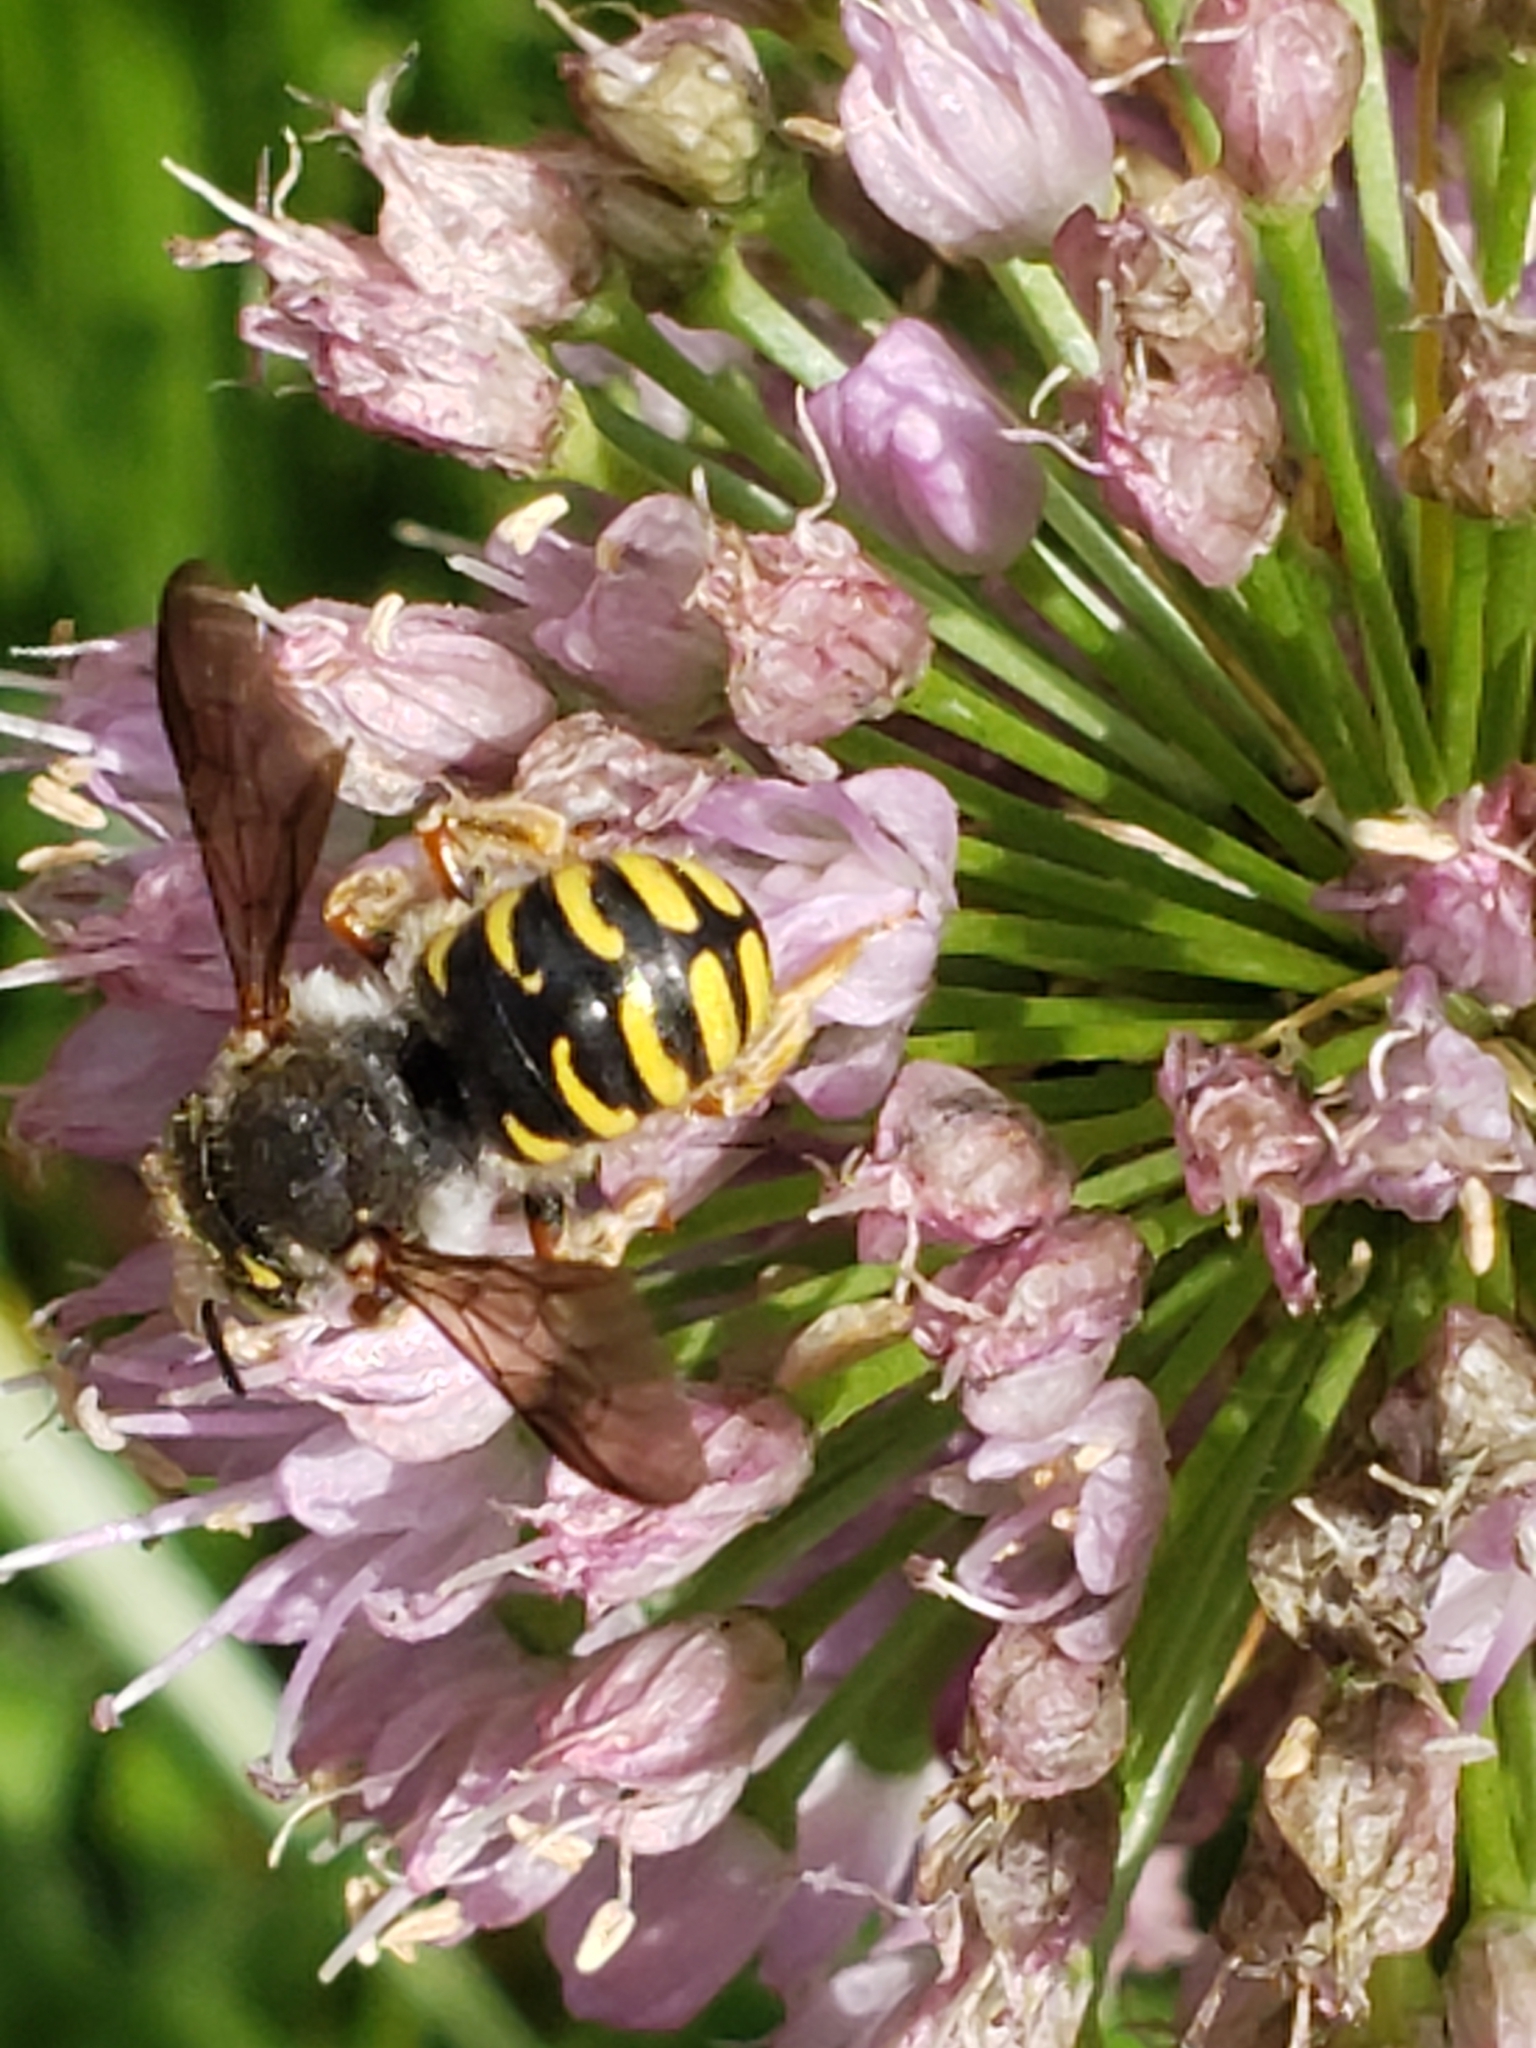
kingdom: Animalia
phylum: Arthropoda
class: Insecta
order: Hymenoptera
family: Megachilidae
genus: Anthidium
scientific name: Anthidium oblongatum
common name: Oblong wool carder bee
